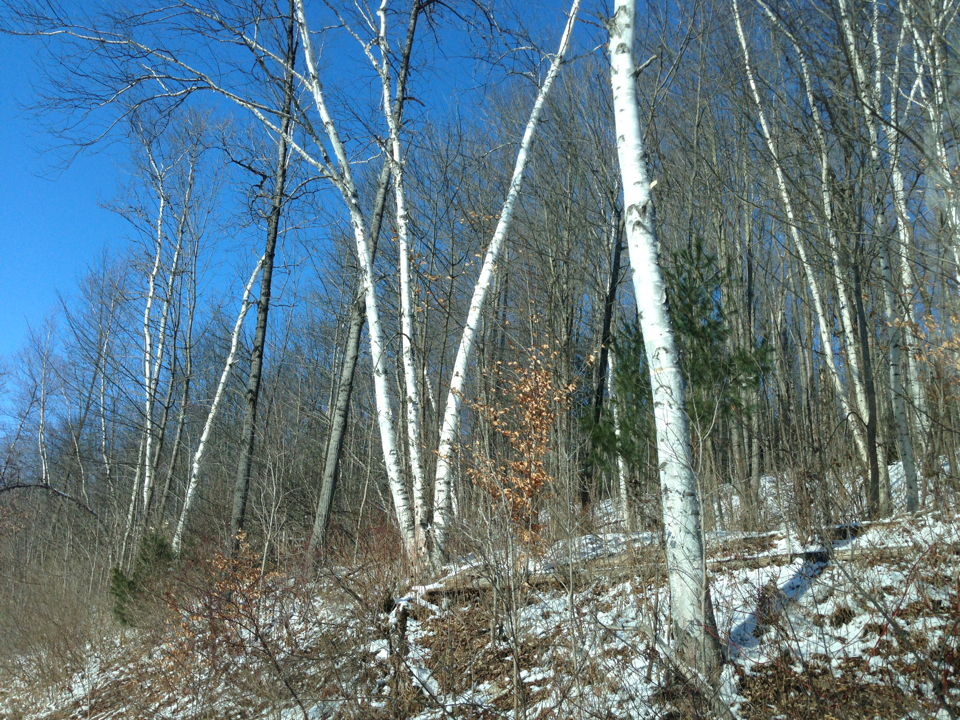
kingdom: Plantae
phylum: Tracheophyta
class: Magnoliopsida
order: Fagales
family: Betulaceae
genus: Betula
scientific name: Betula papyrifera
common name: Paper birch
